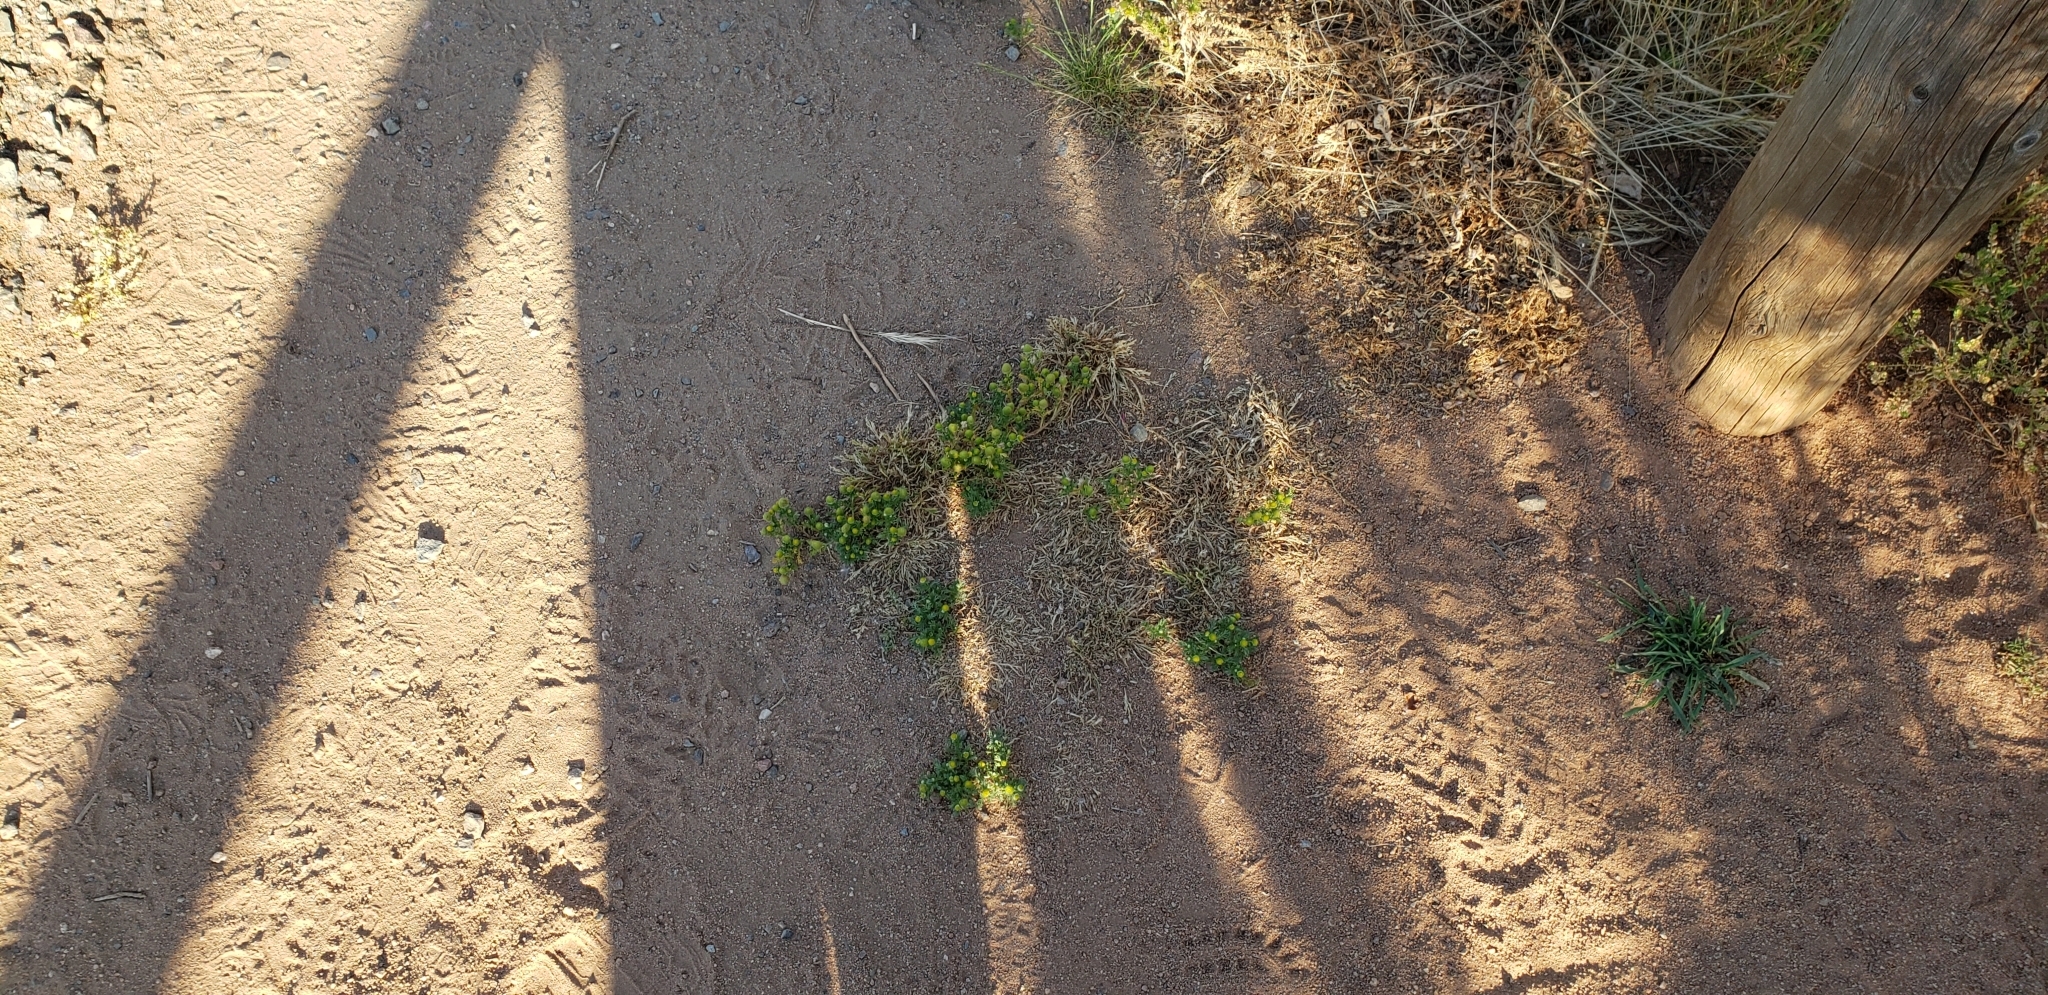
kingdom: Plantae
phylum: Tracheophyta
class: Magnoliopsida
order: Asterales
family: Asteraceae
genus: Matricaria
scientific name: Matricaria discoidea
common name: Disc mayweed
